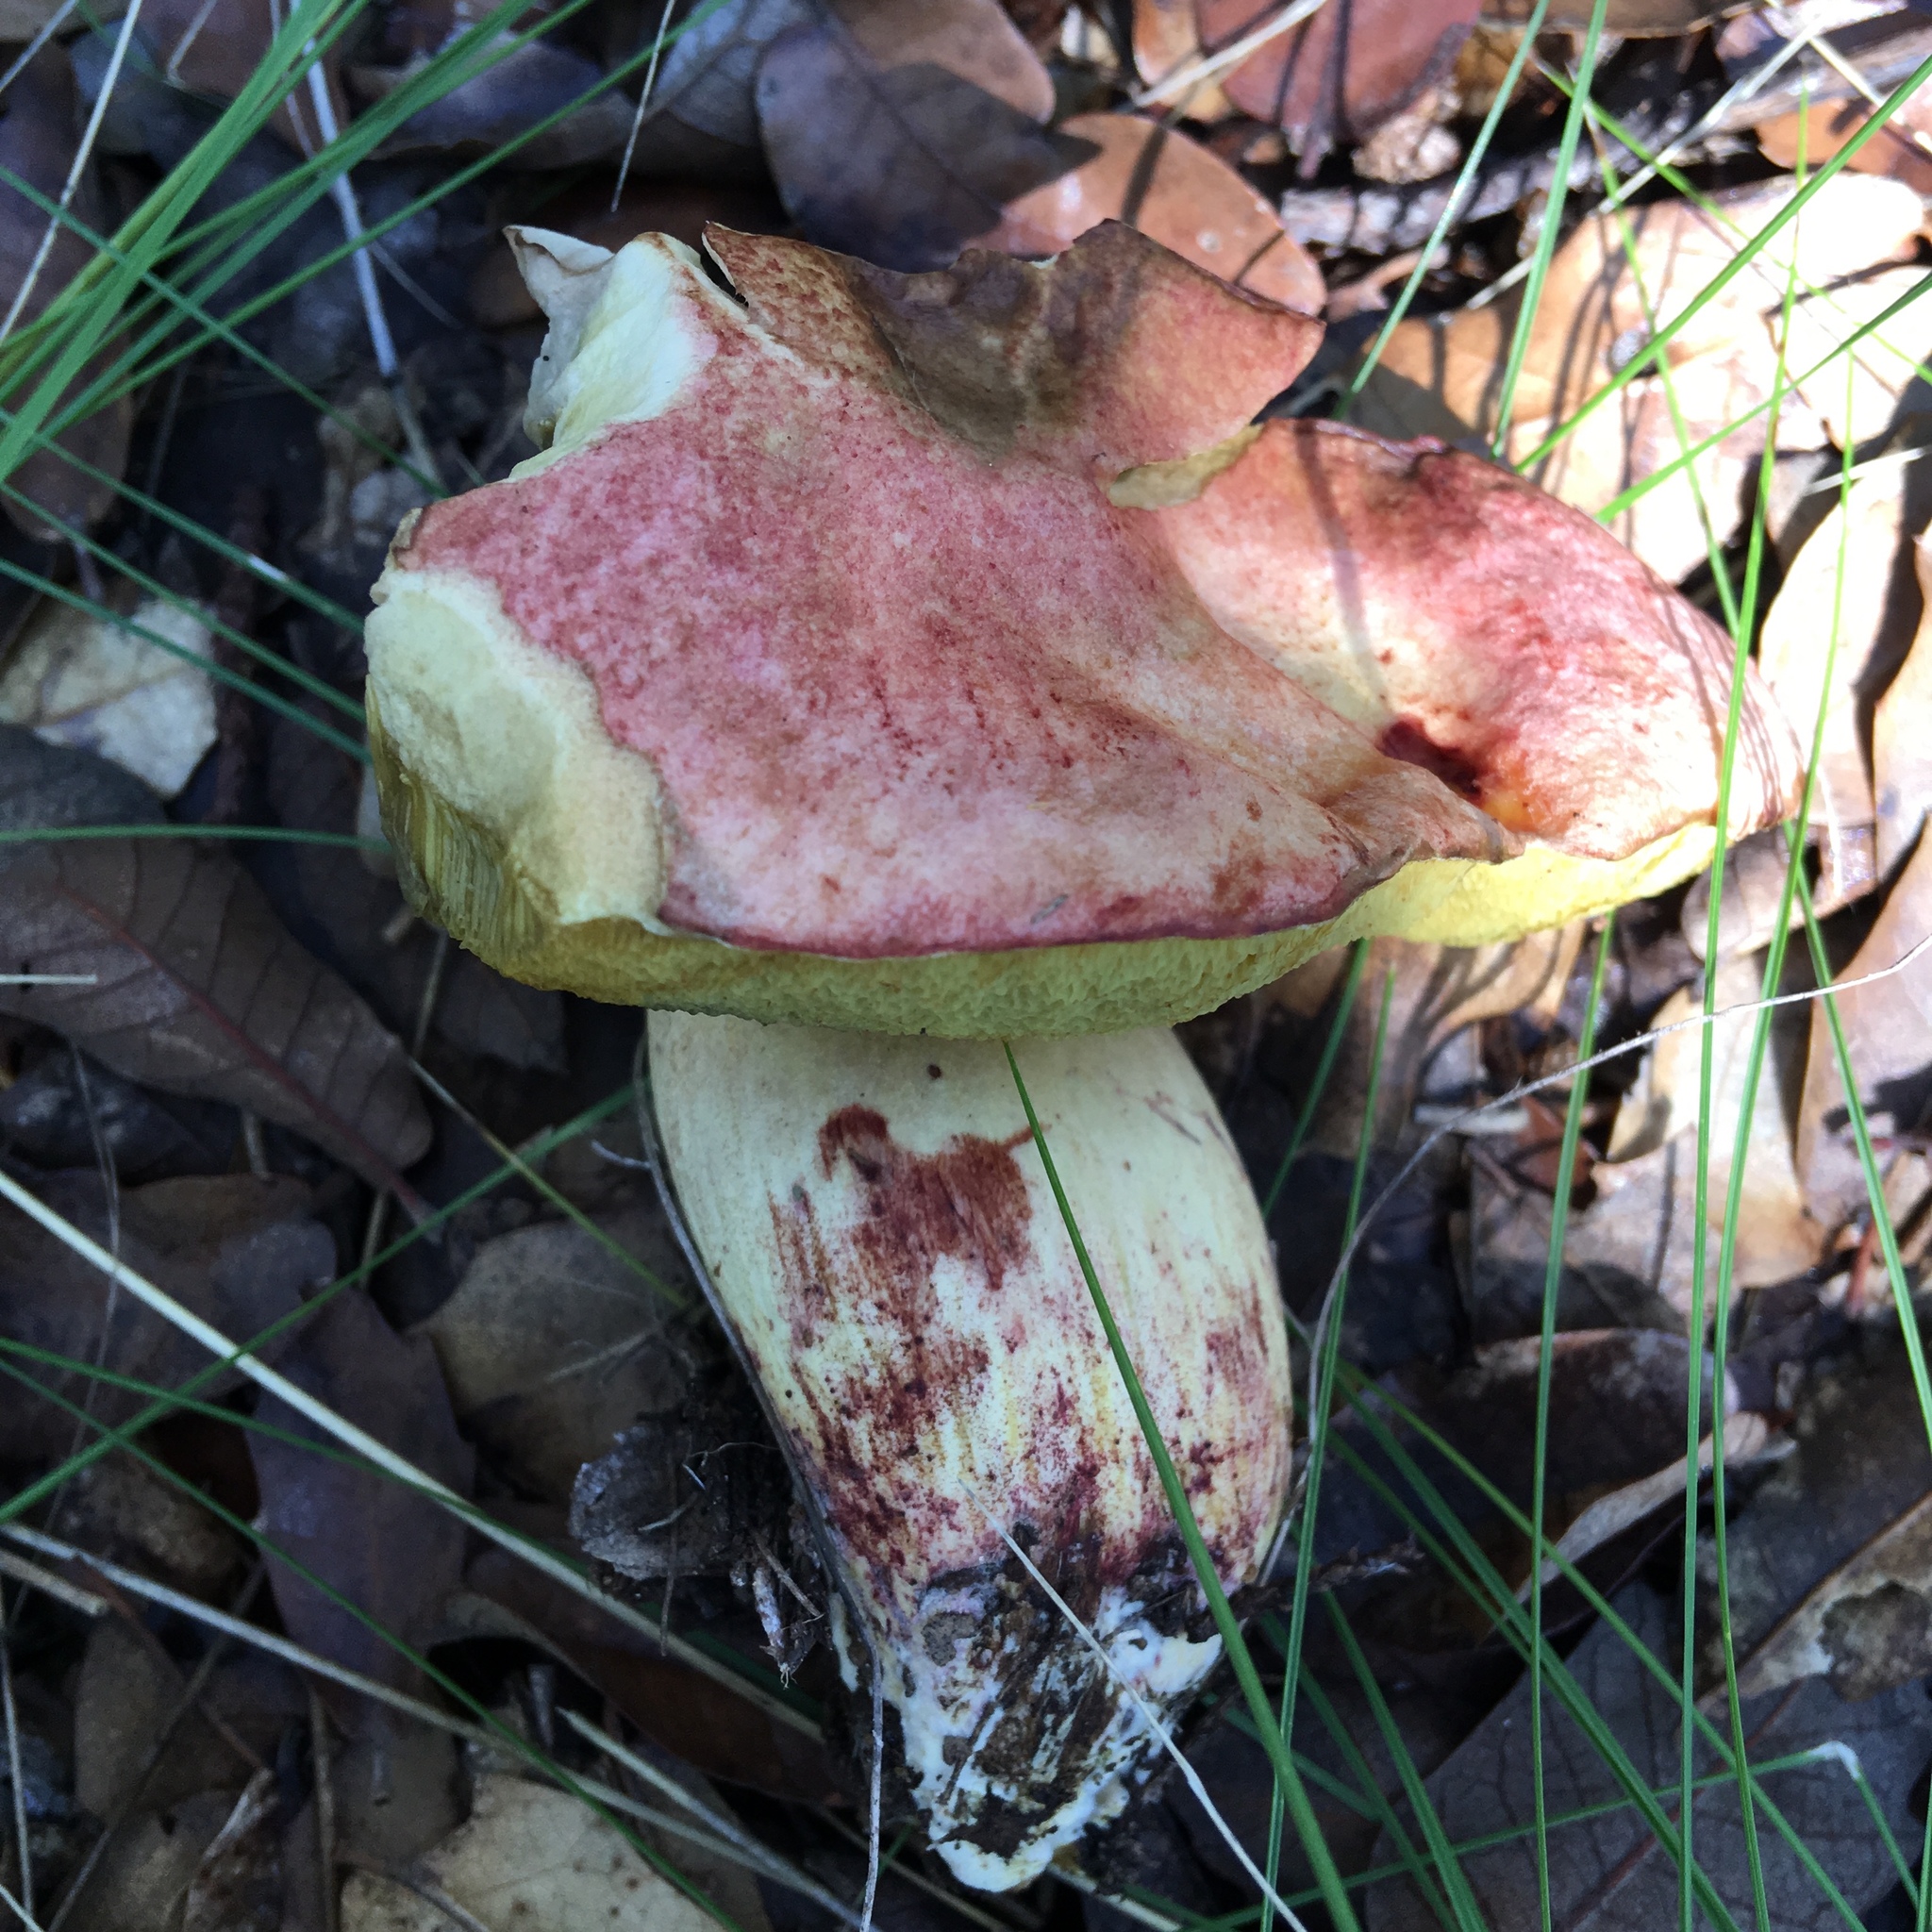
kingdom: Fungi
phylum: Basidiomycota
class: Agaricomycetes
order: Boletales
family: Boletaceae
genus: Pulchroboletus
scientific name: Pulchroboletus rubricitrinus
